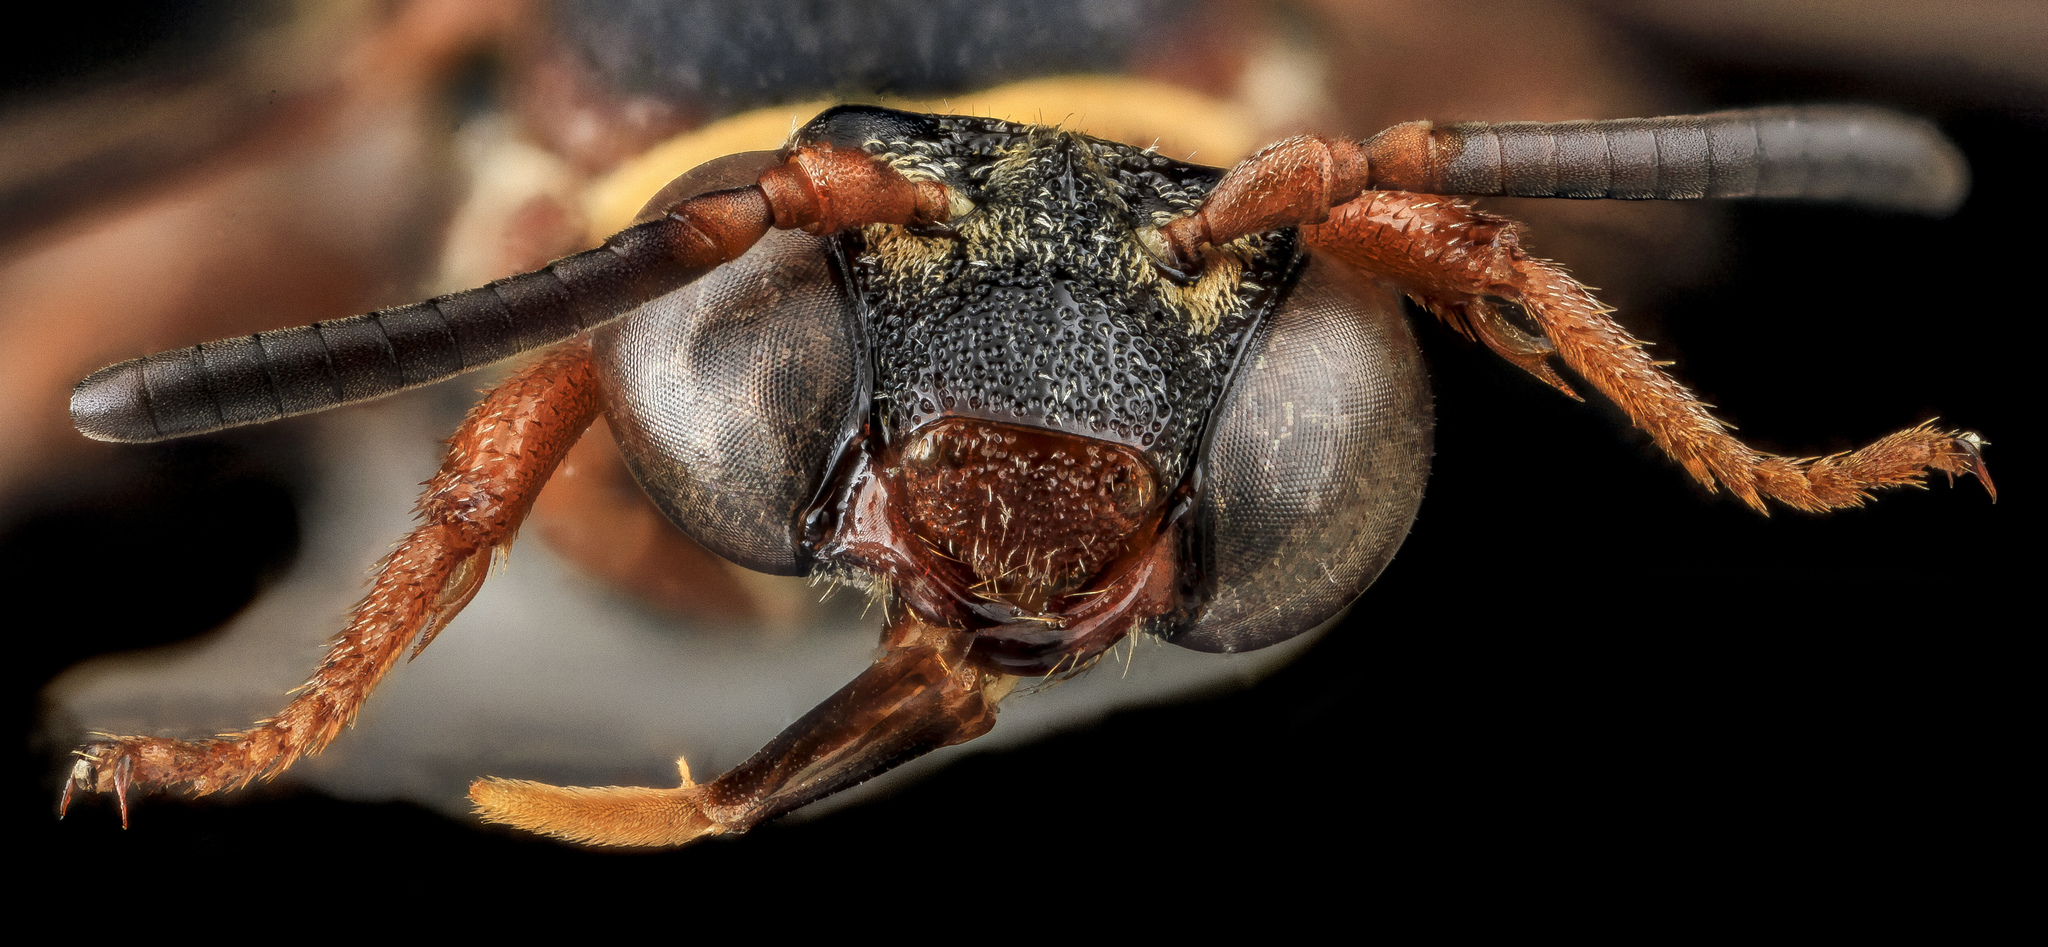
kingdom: Animalia
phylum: Arthropoda
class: Insecta
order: Hymenoptera
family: Apidae
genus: Epeolus
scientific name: Epeolus bifasciatus
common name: Two-banded cellophane-cuckoo
